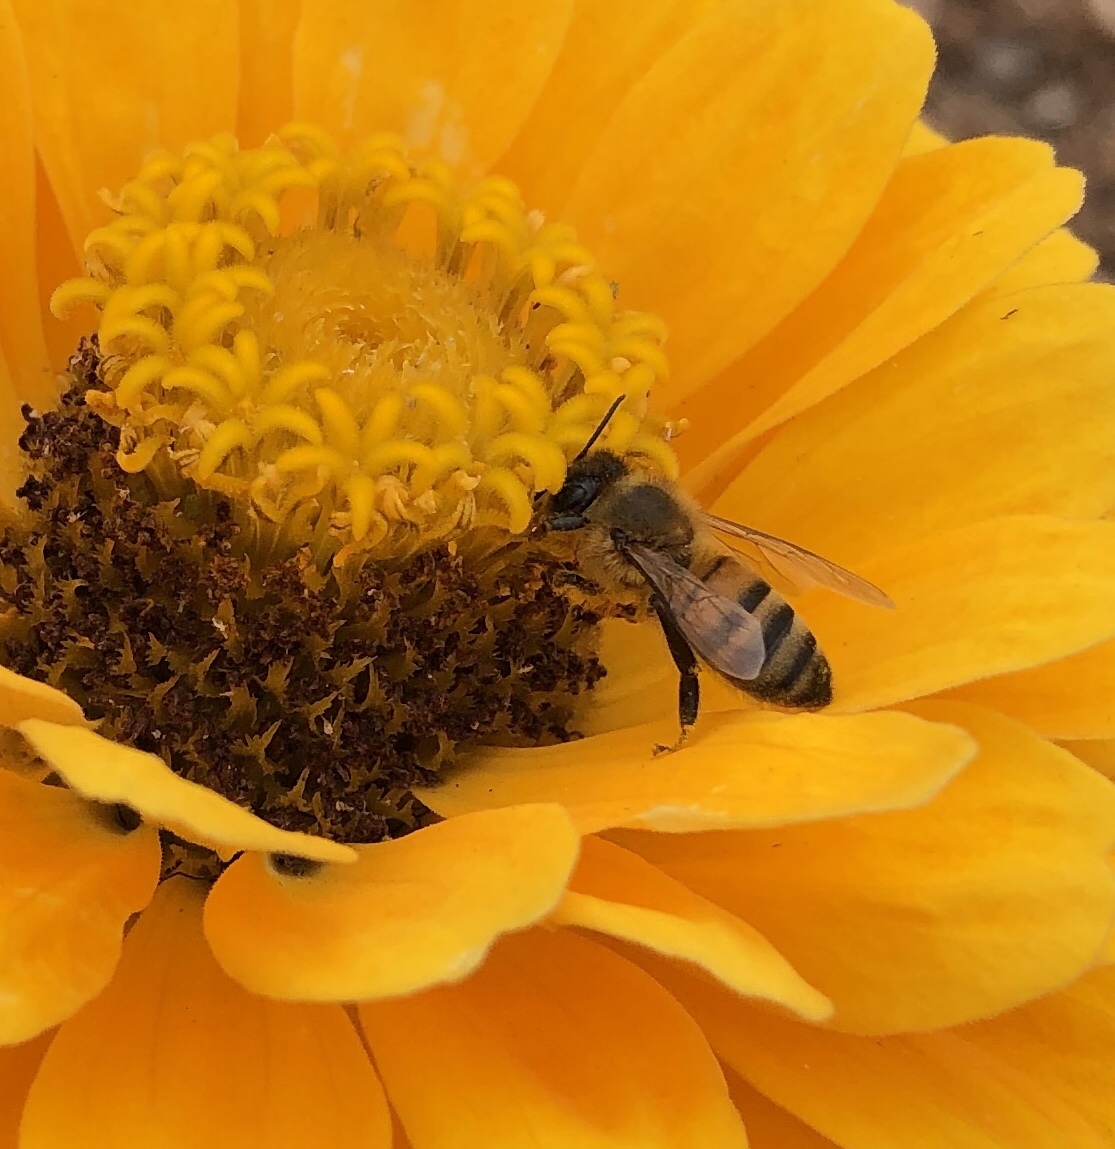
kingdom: Animalia
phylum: Arthropoda
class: Insecta
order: Hymenoptera
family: Apidae
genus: Apis
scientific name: Apis mellifera
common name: Honey bee
